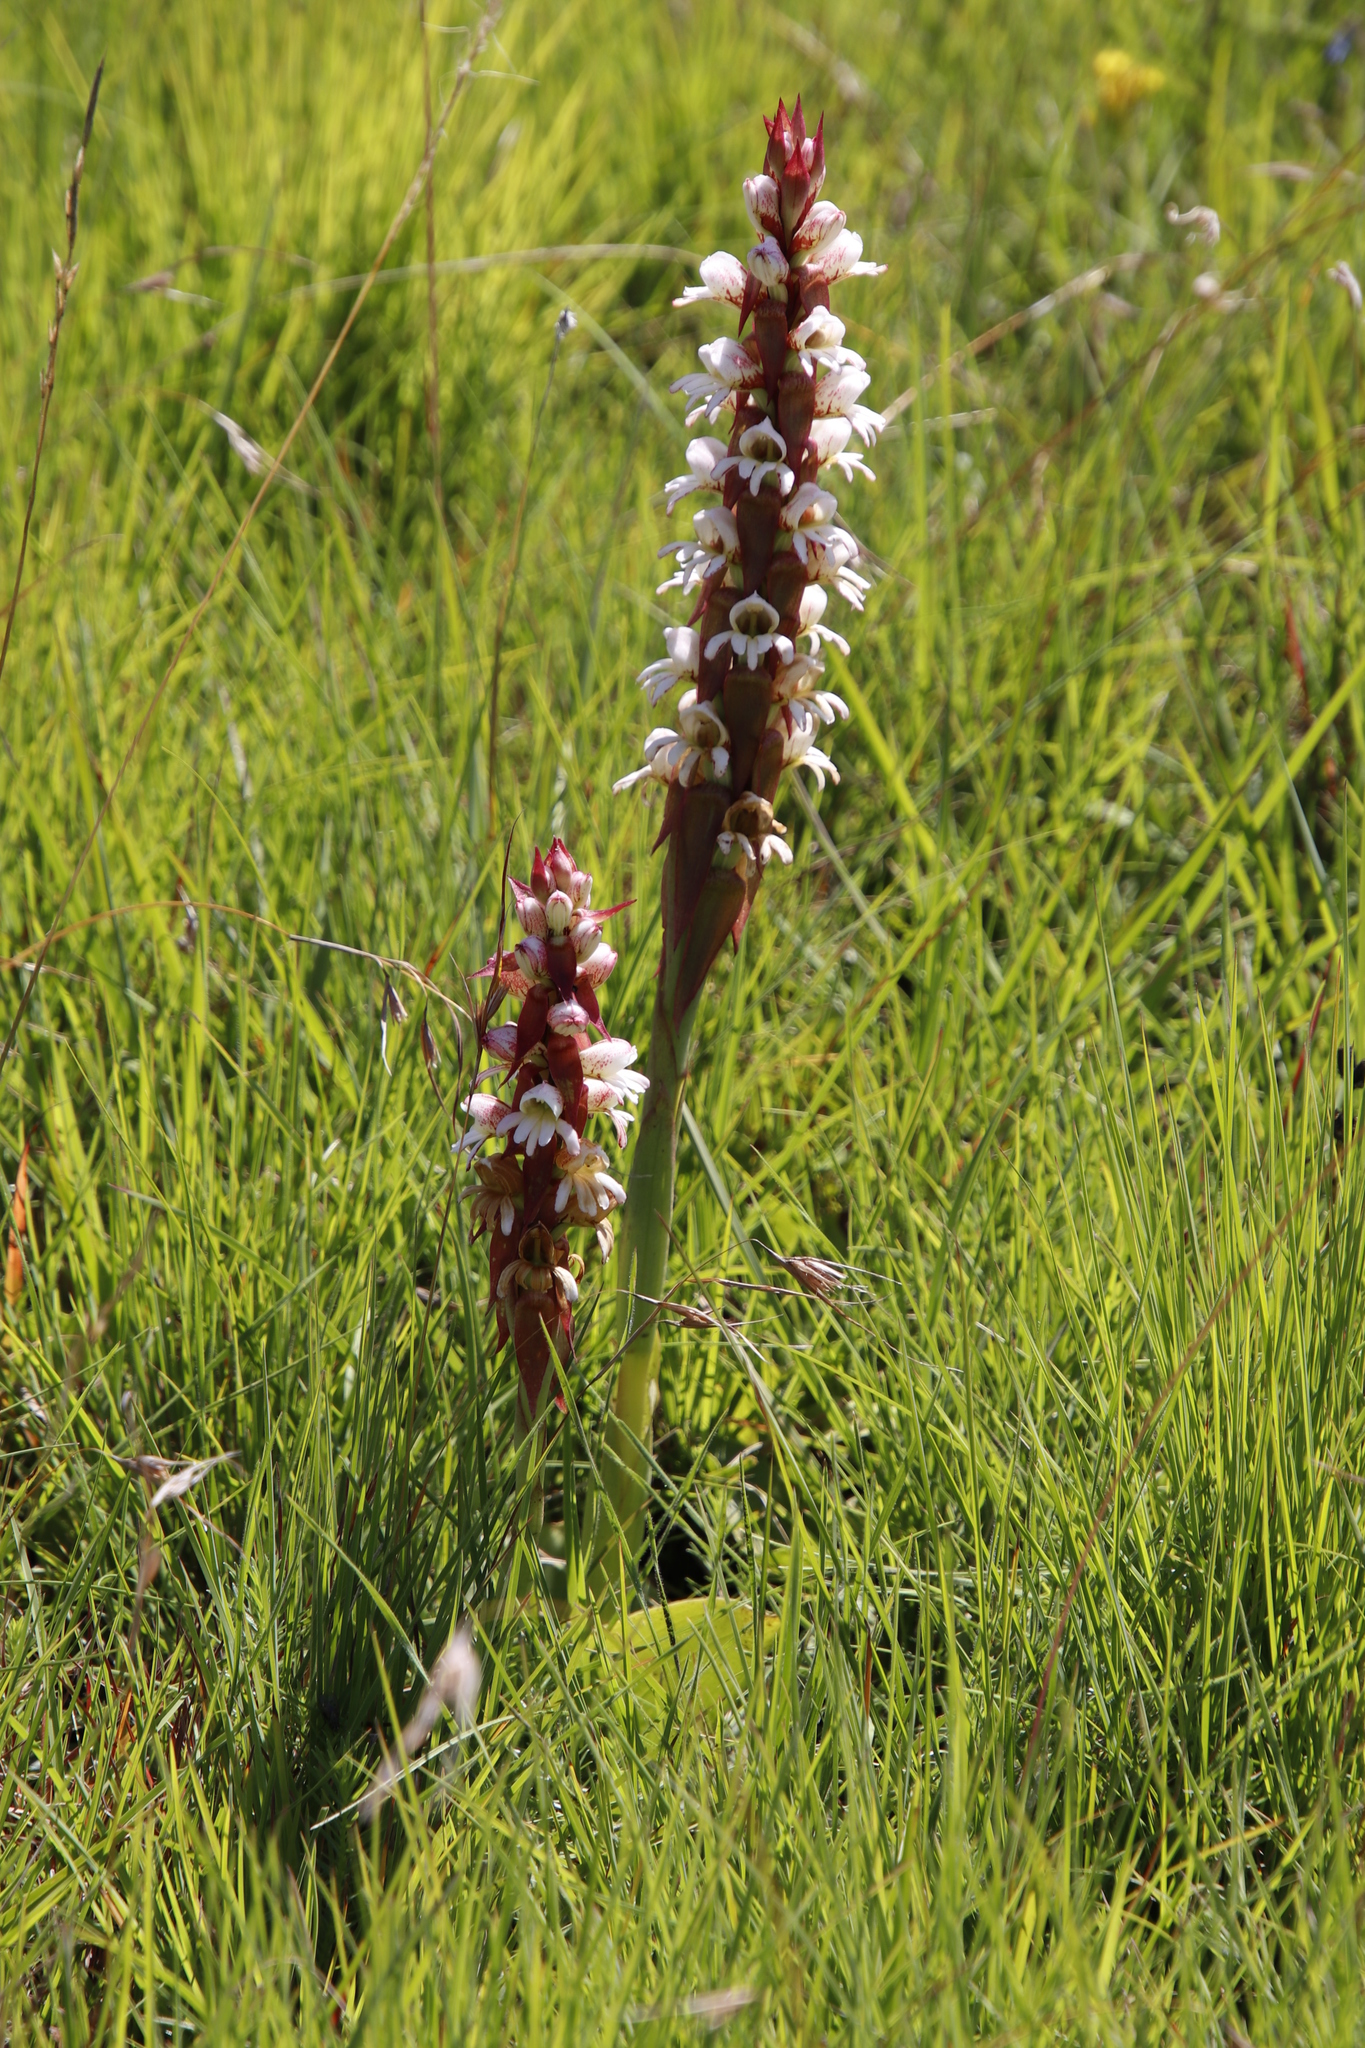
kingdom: Plantae
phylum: Tracheophyta
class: Liliopsida
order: Asparagales
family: Orchidaceae
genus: Satyrium
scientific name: Satyrium sphaerocarpum
